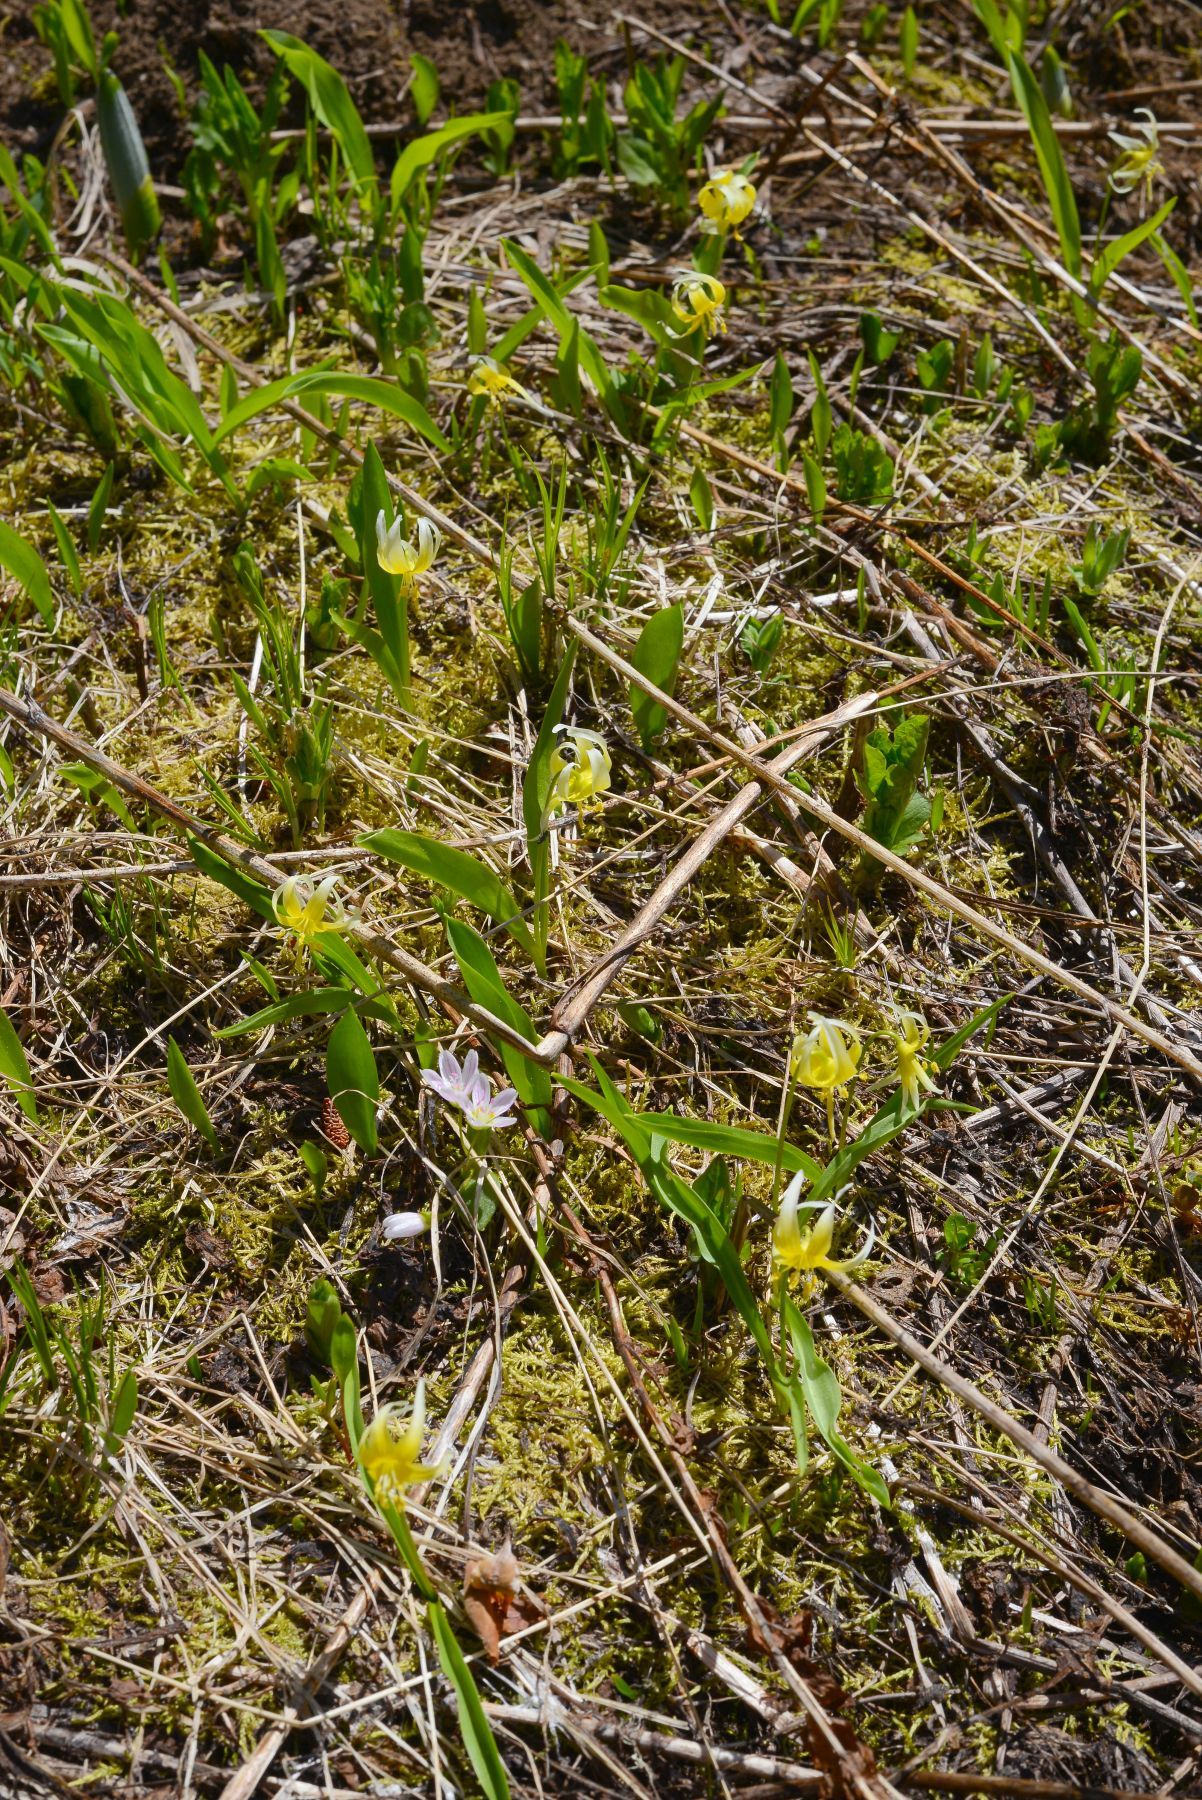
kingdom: Plantae
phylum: Tracheophyta
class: Liliopsida
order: Liliales
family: Liliaceae
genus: Erythronium
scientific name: Erythronium klamathense
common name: Klamath fawn-lily
